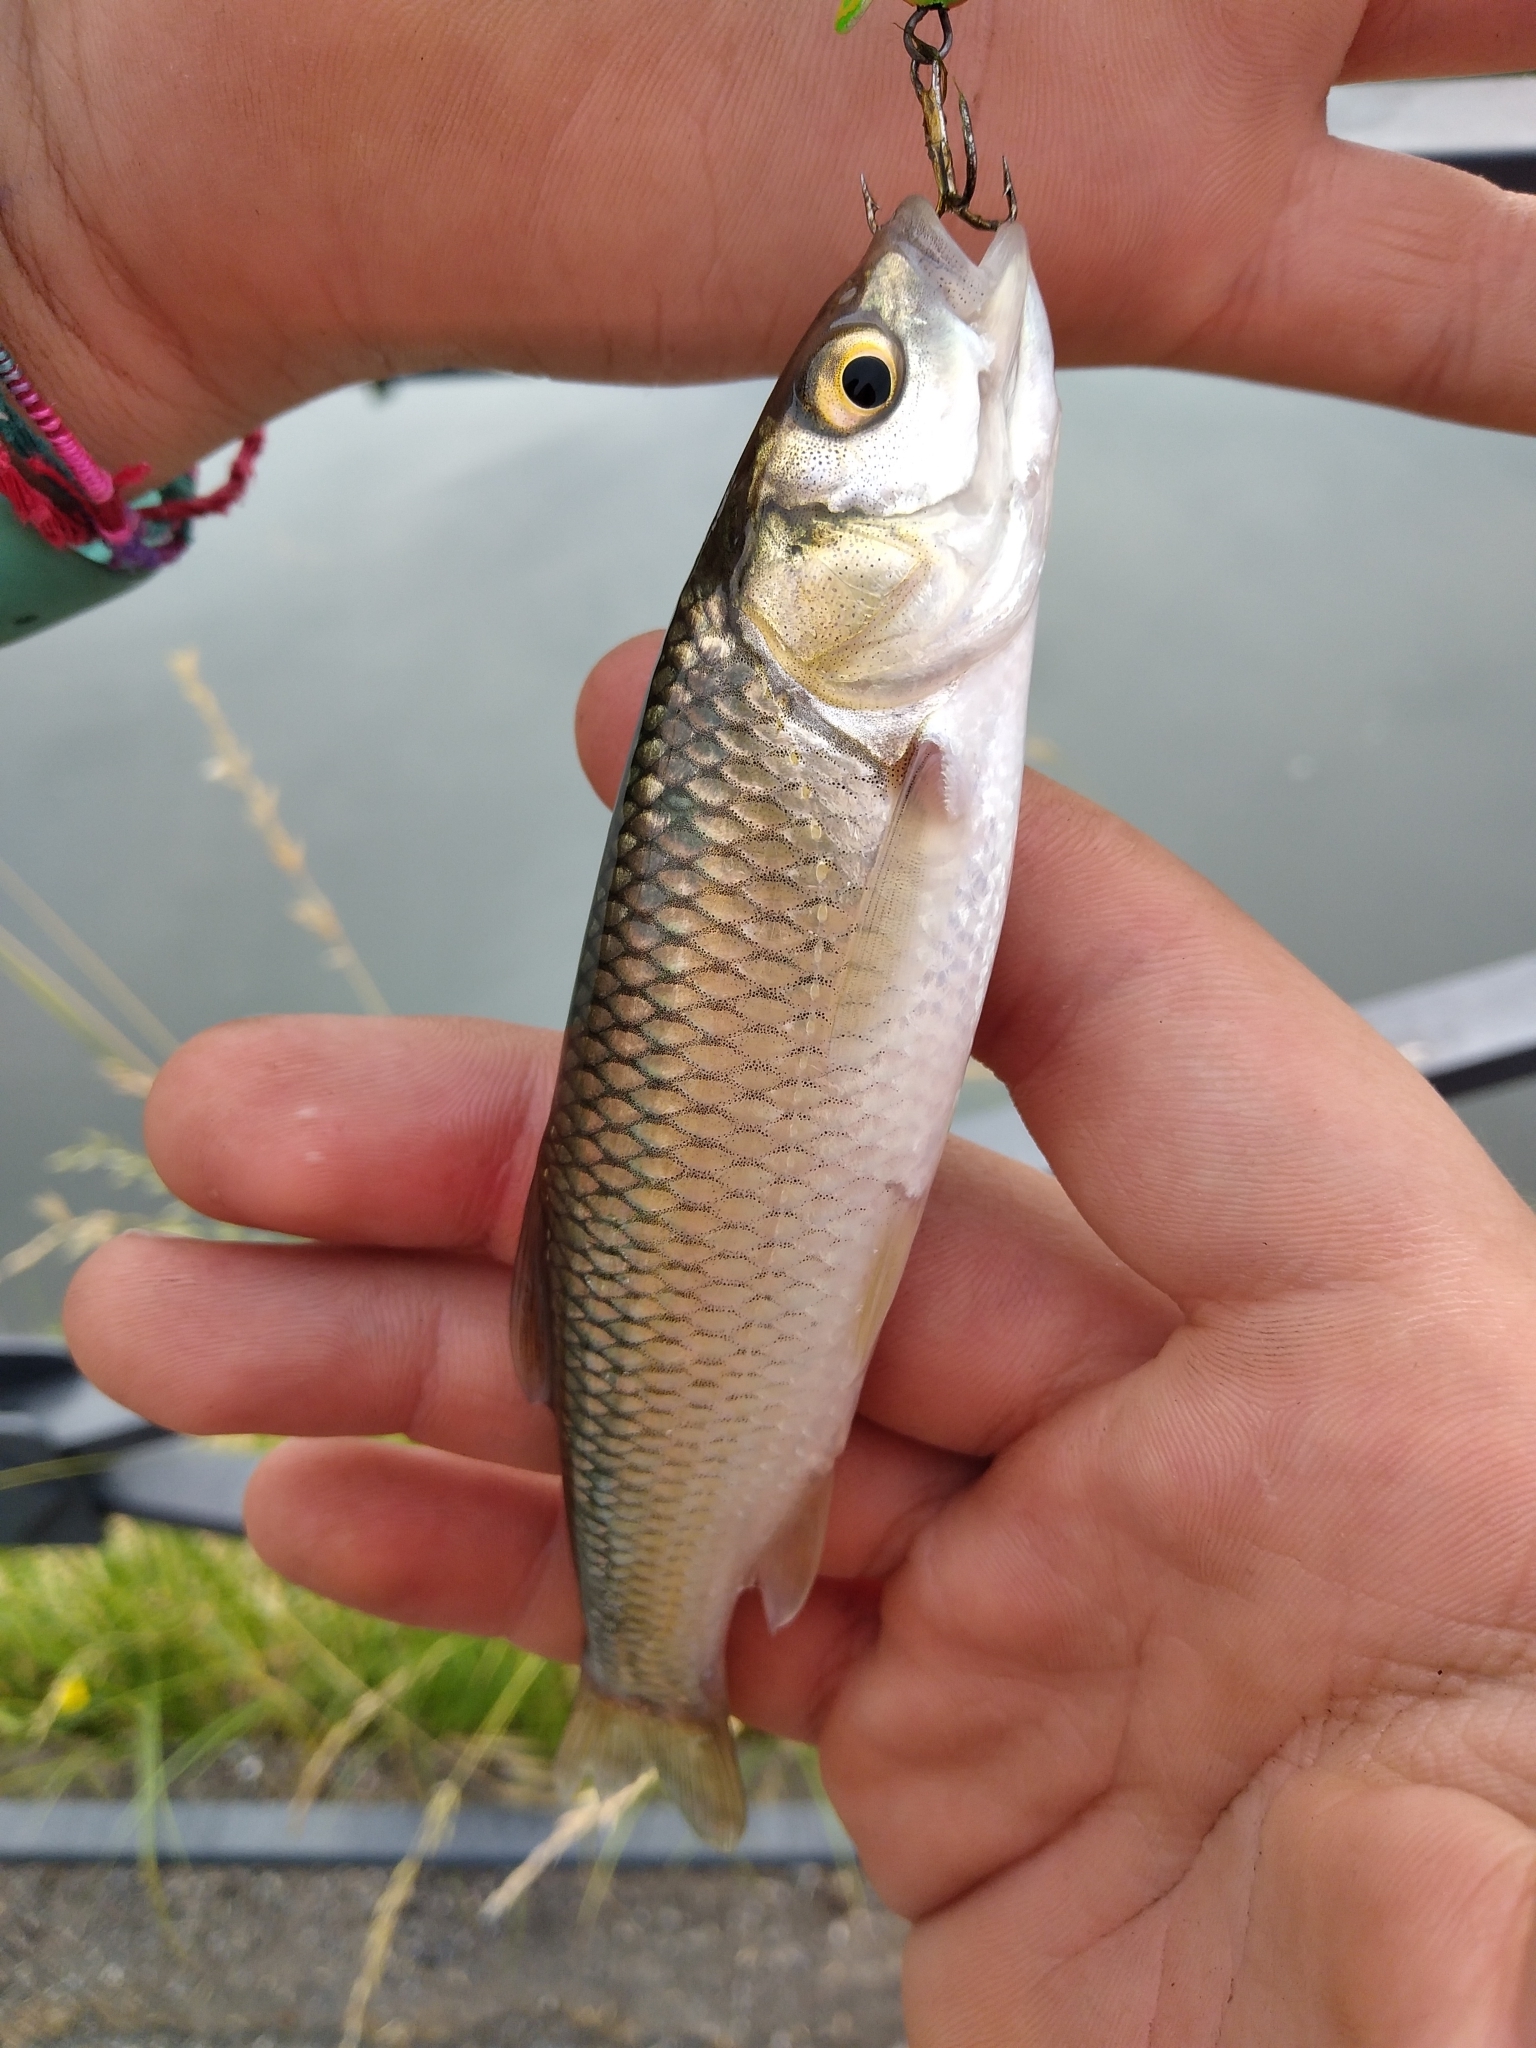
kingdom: Animalia
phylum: Chordata
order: Cypriniformes
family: Cyprinidae
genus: Squalius
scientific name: Squalius squalus
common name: Italian chub
